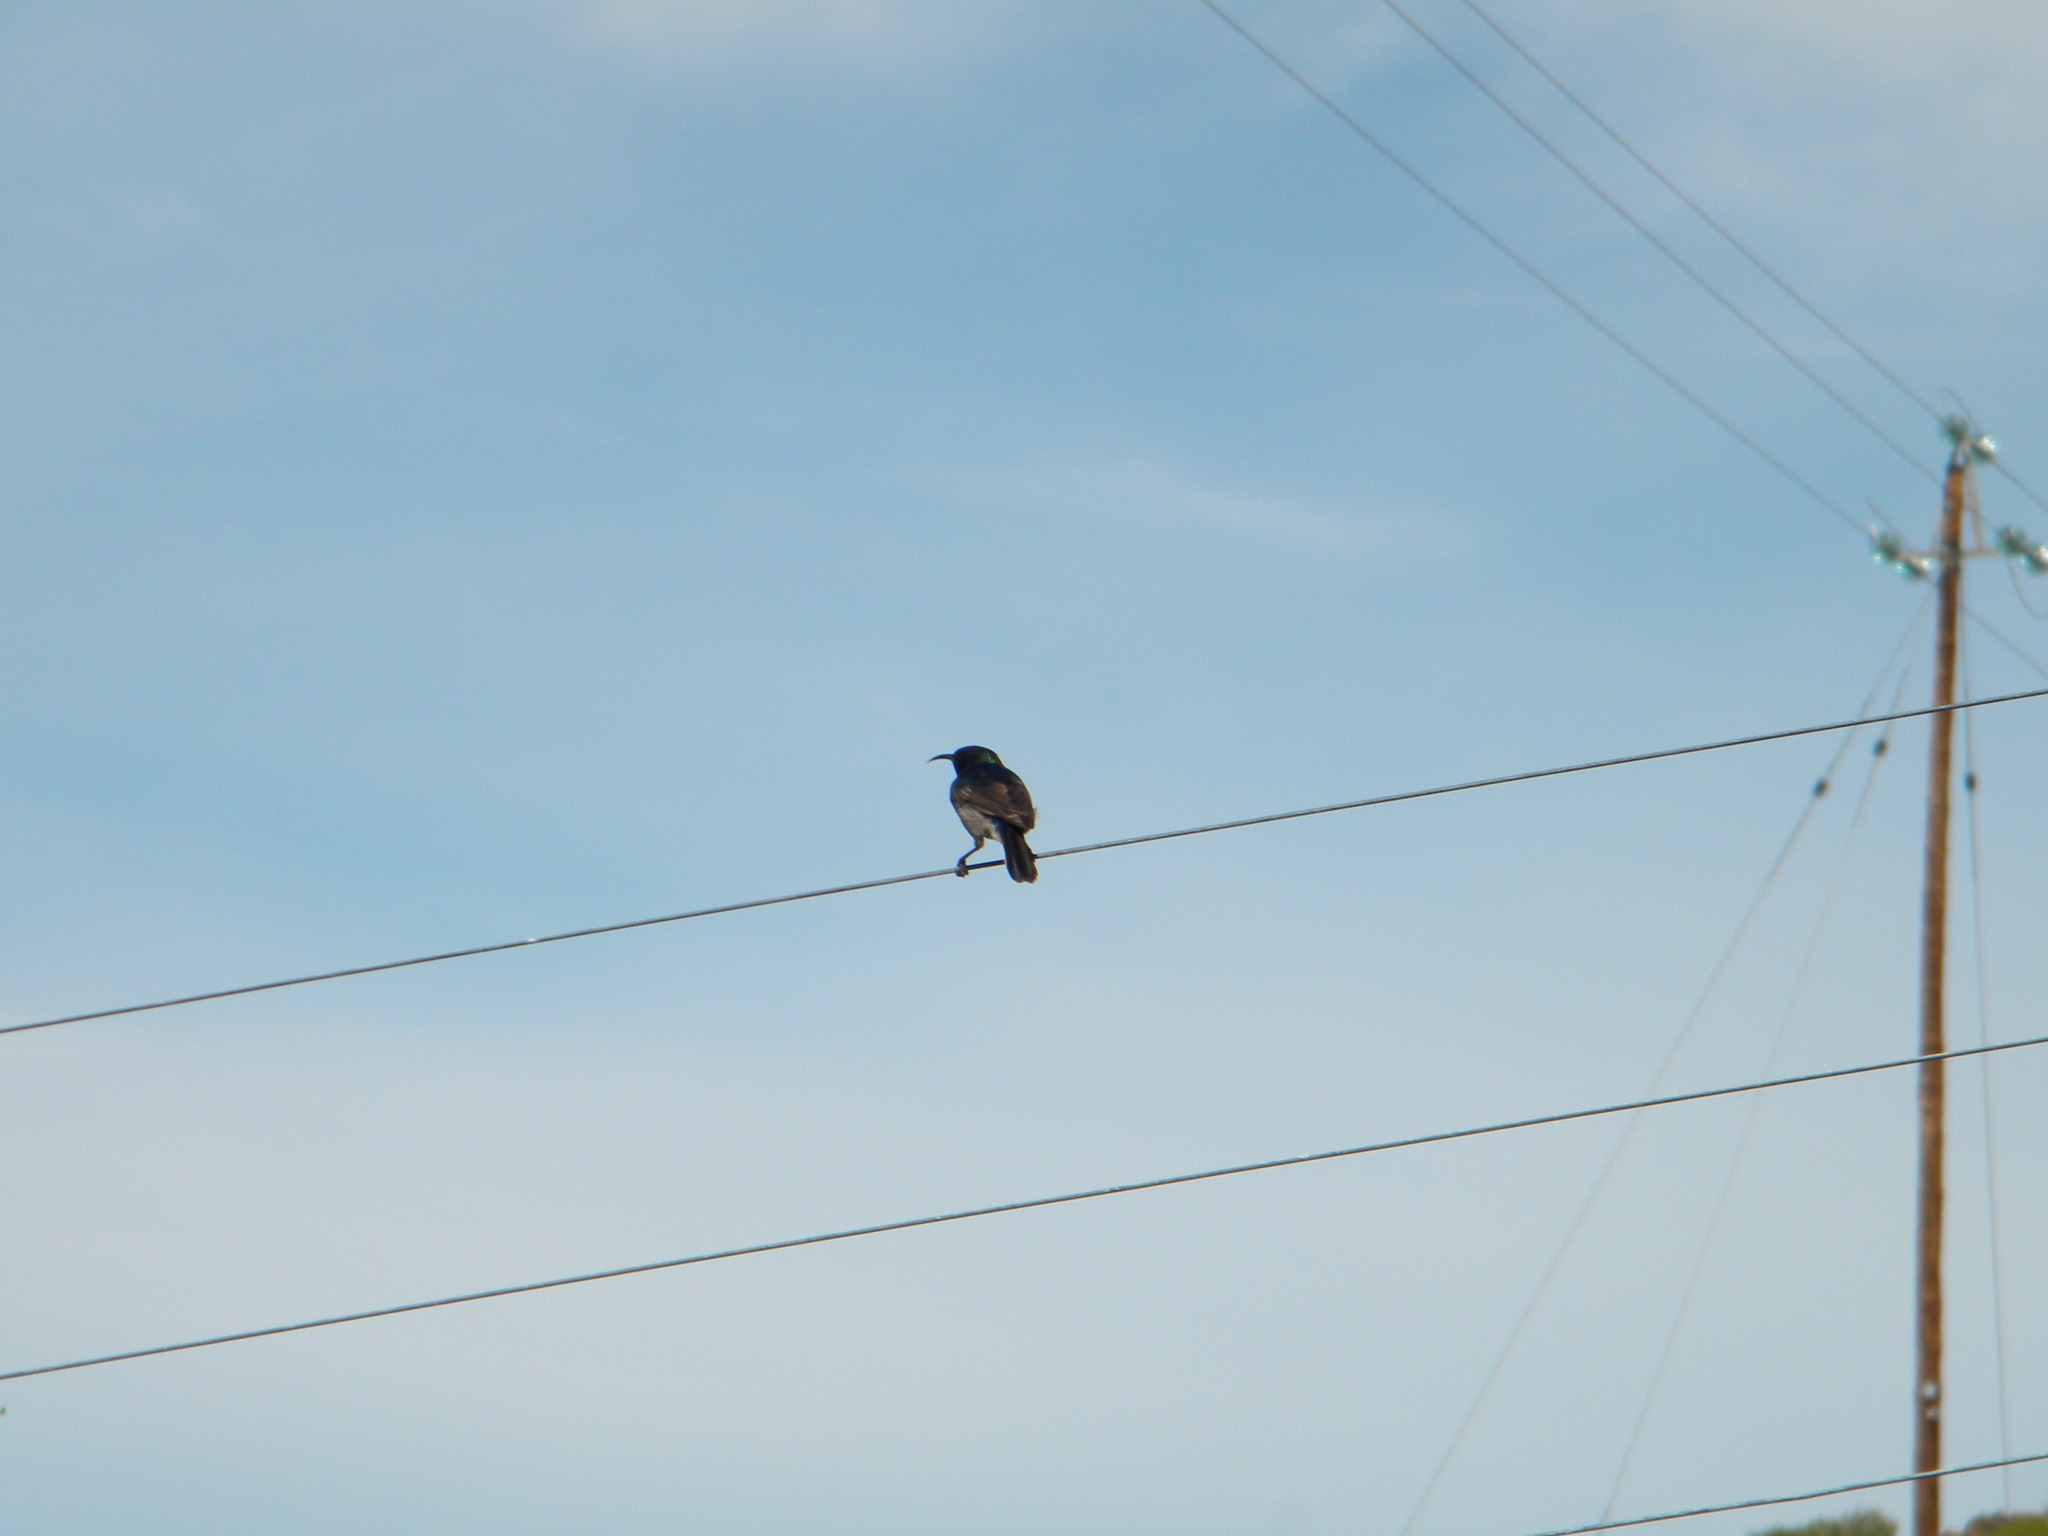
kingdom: Animalia
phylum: Chordata
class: Aves
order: Passeriformes
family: Nectariniidae
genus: Cinnyris
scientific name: Cinnyris chalybeus
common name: Southern double-collared sunbird
